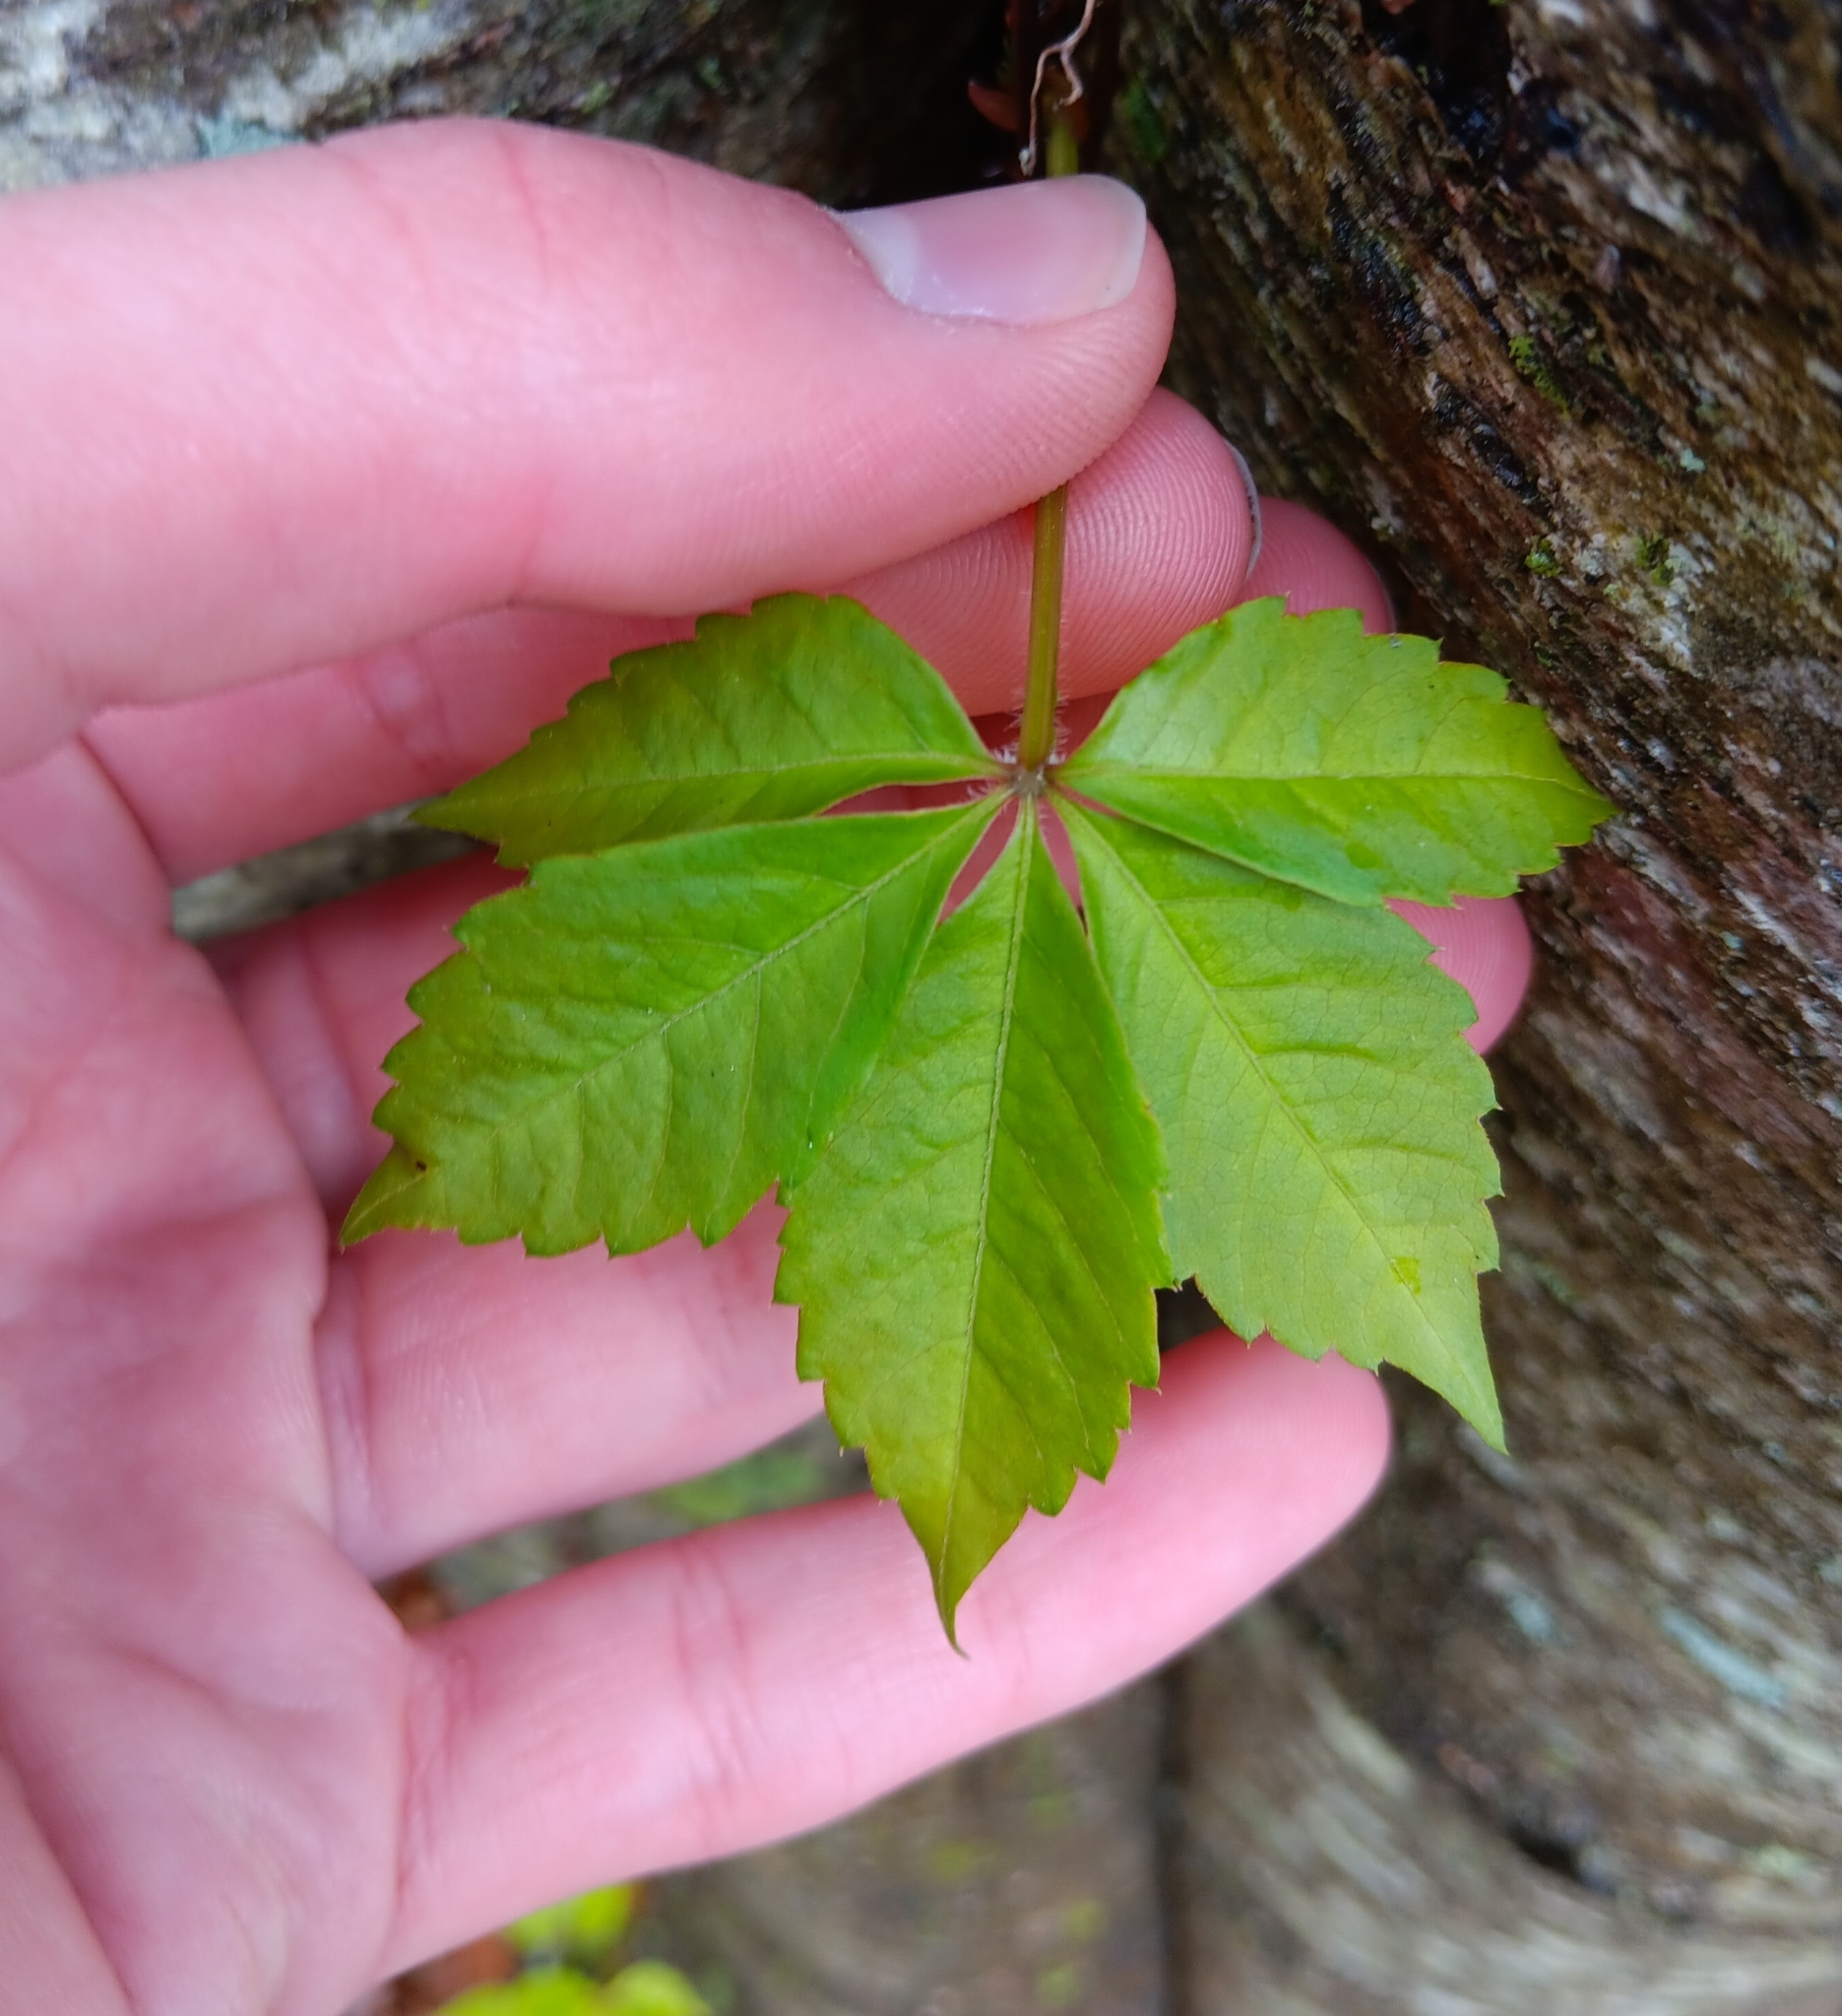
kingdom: Plantae
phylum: Tracheophyta
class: Magnoliopsida
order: Vitales
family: Vitaceae
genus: Parthenocissus
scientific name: Parthenocissus quinquefolia
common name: Virginia-creeper
